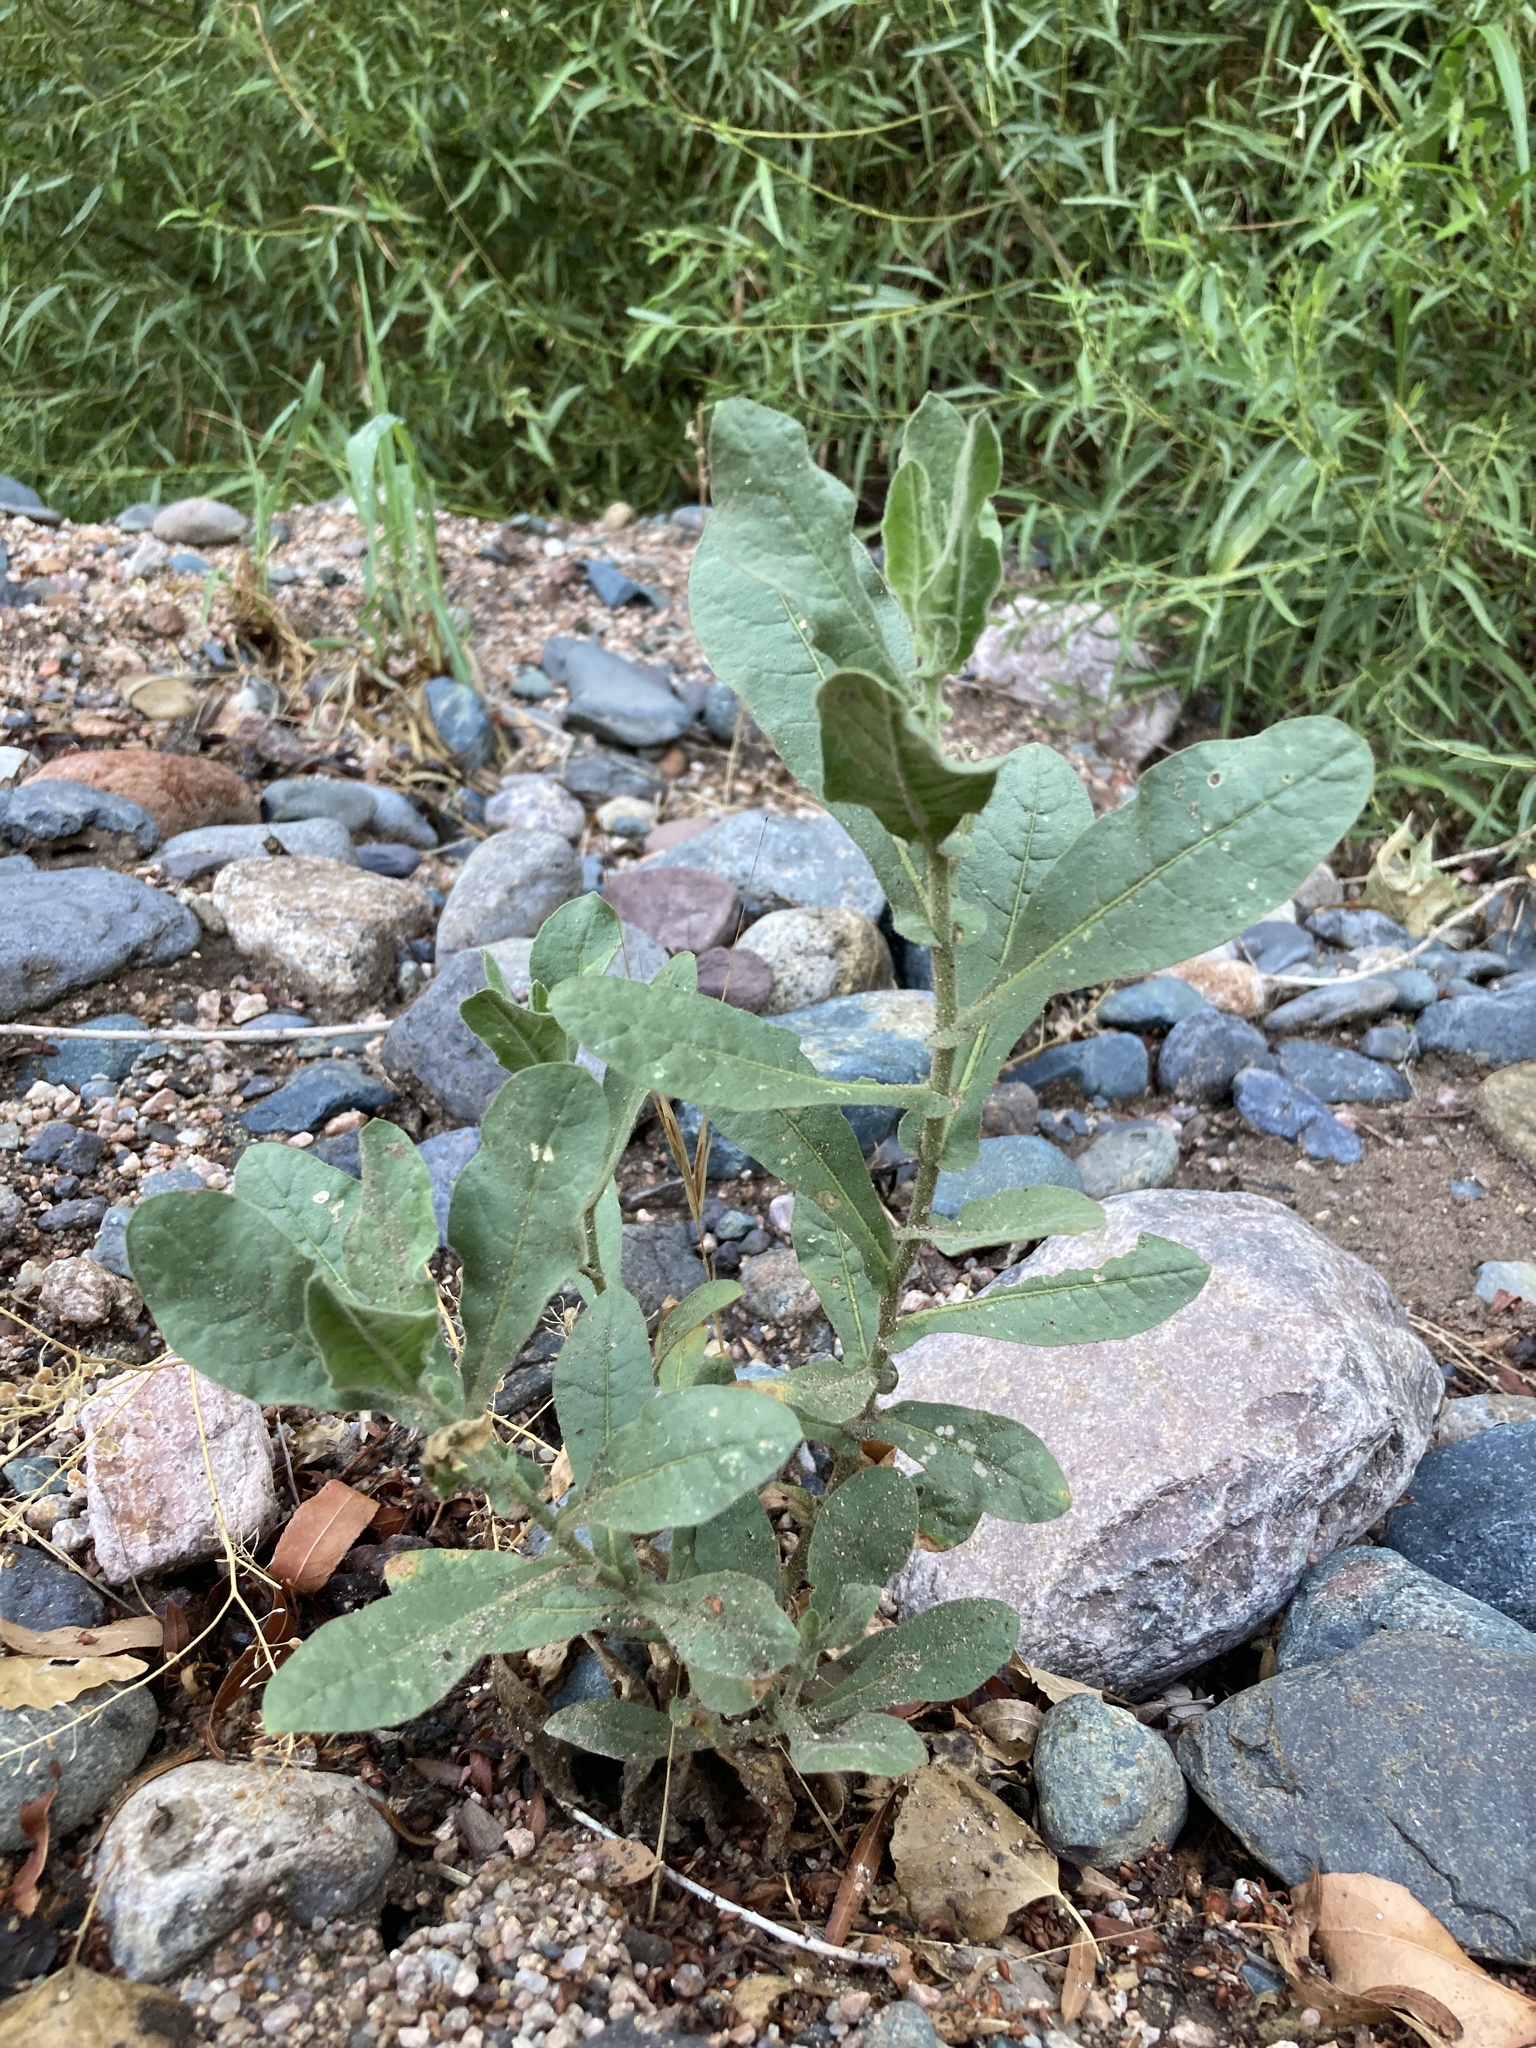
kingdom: Plantae
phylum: Tracheophyta
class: Magnoliopsida
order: Solanales
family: Solanaceae
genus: Nicotiana
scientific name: Nicotiana obtusifolia
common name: Desert tobacco
